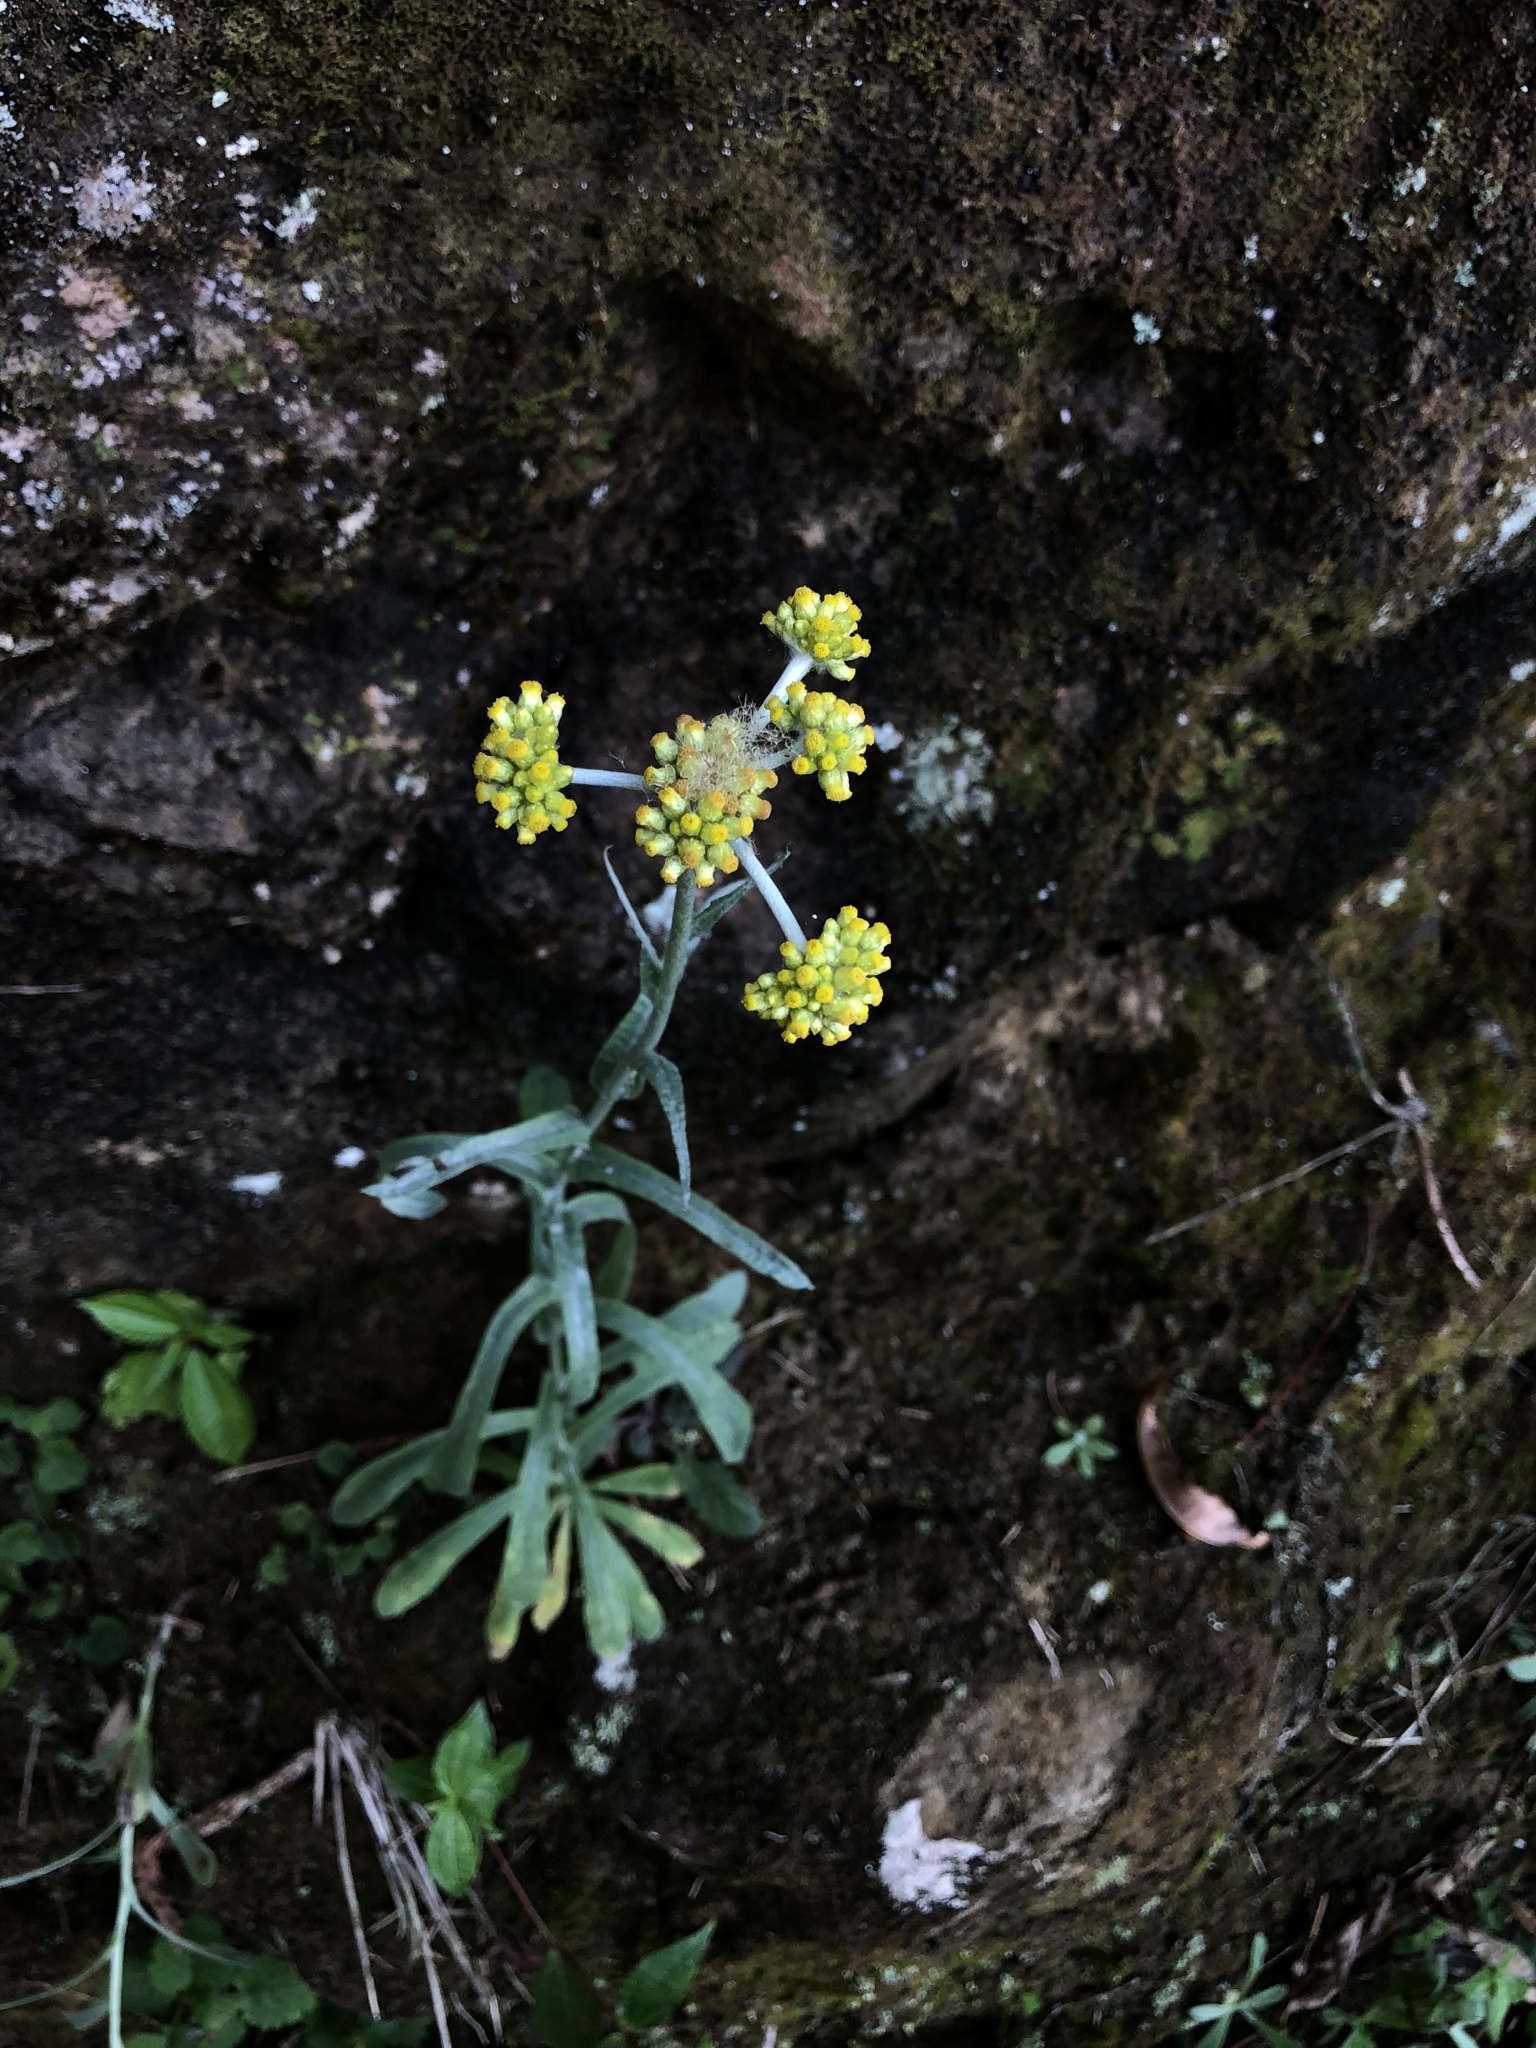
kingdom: Plantae
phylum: Tracheophyta
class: Magnoliopsida
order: Asterales
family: Asteraceae
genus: Pseudognaphalium
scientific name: Pseudognaphalium affine
